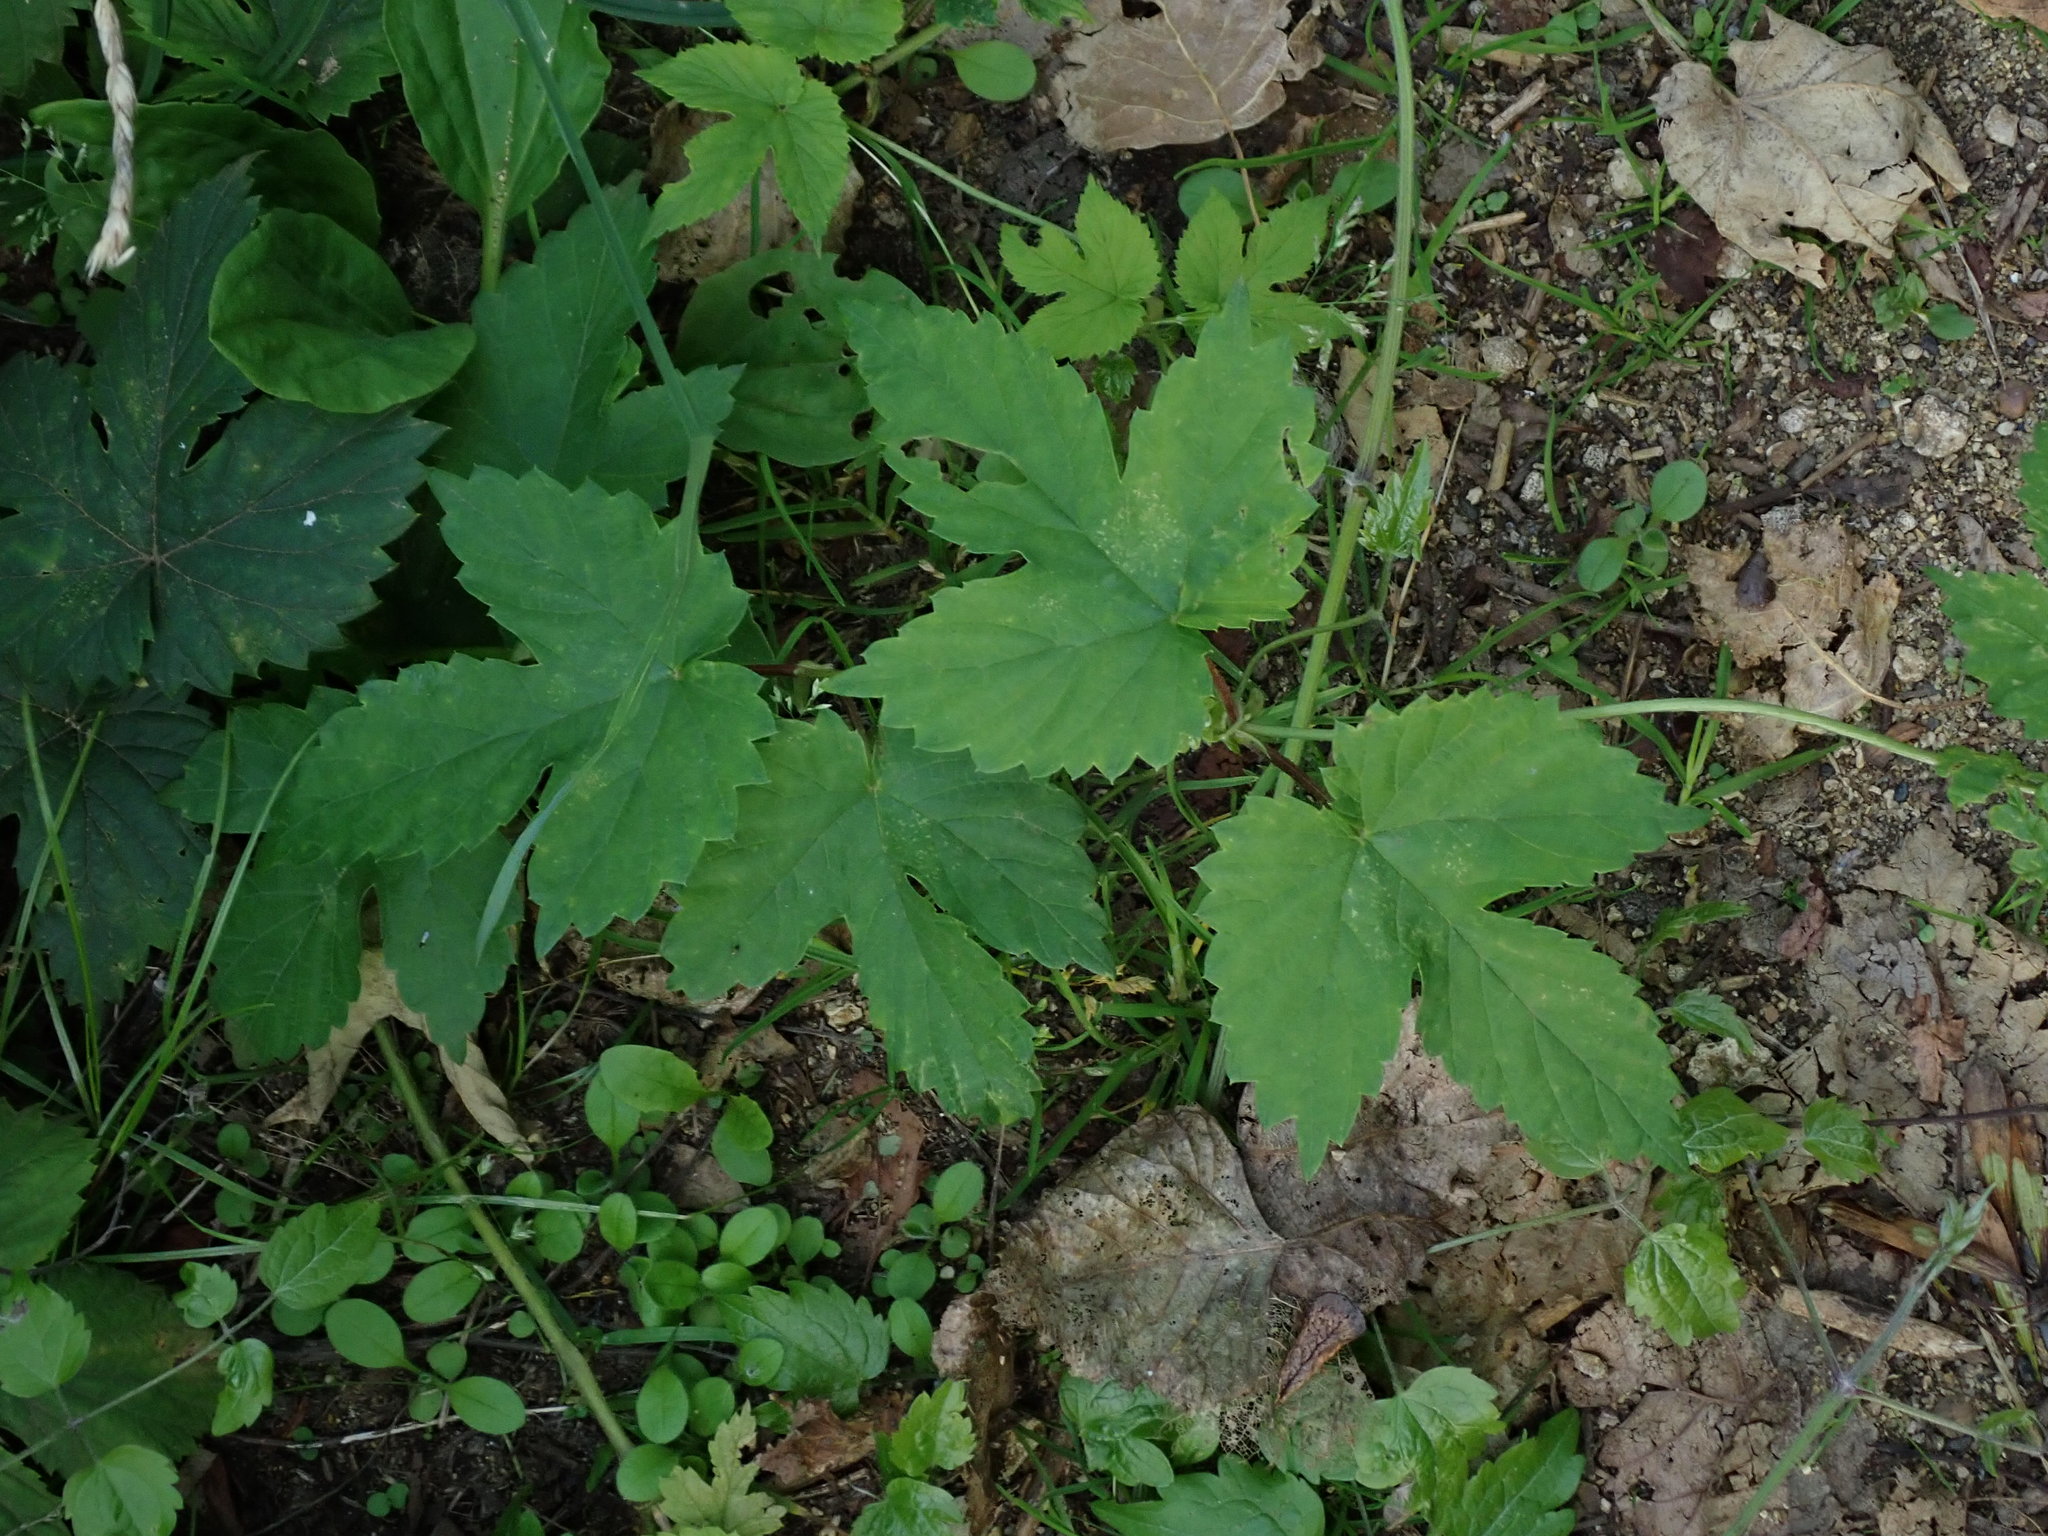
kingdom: Plantae
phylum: Tracheophyta
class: Magnoliopsida
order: Rosales
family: Cannabaceae
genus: Humulus
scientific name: Humulus lupulus
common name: Hop
